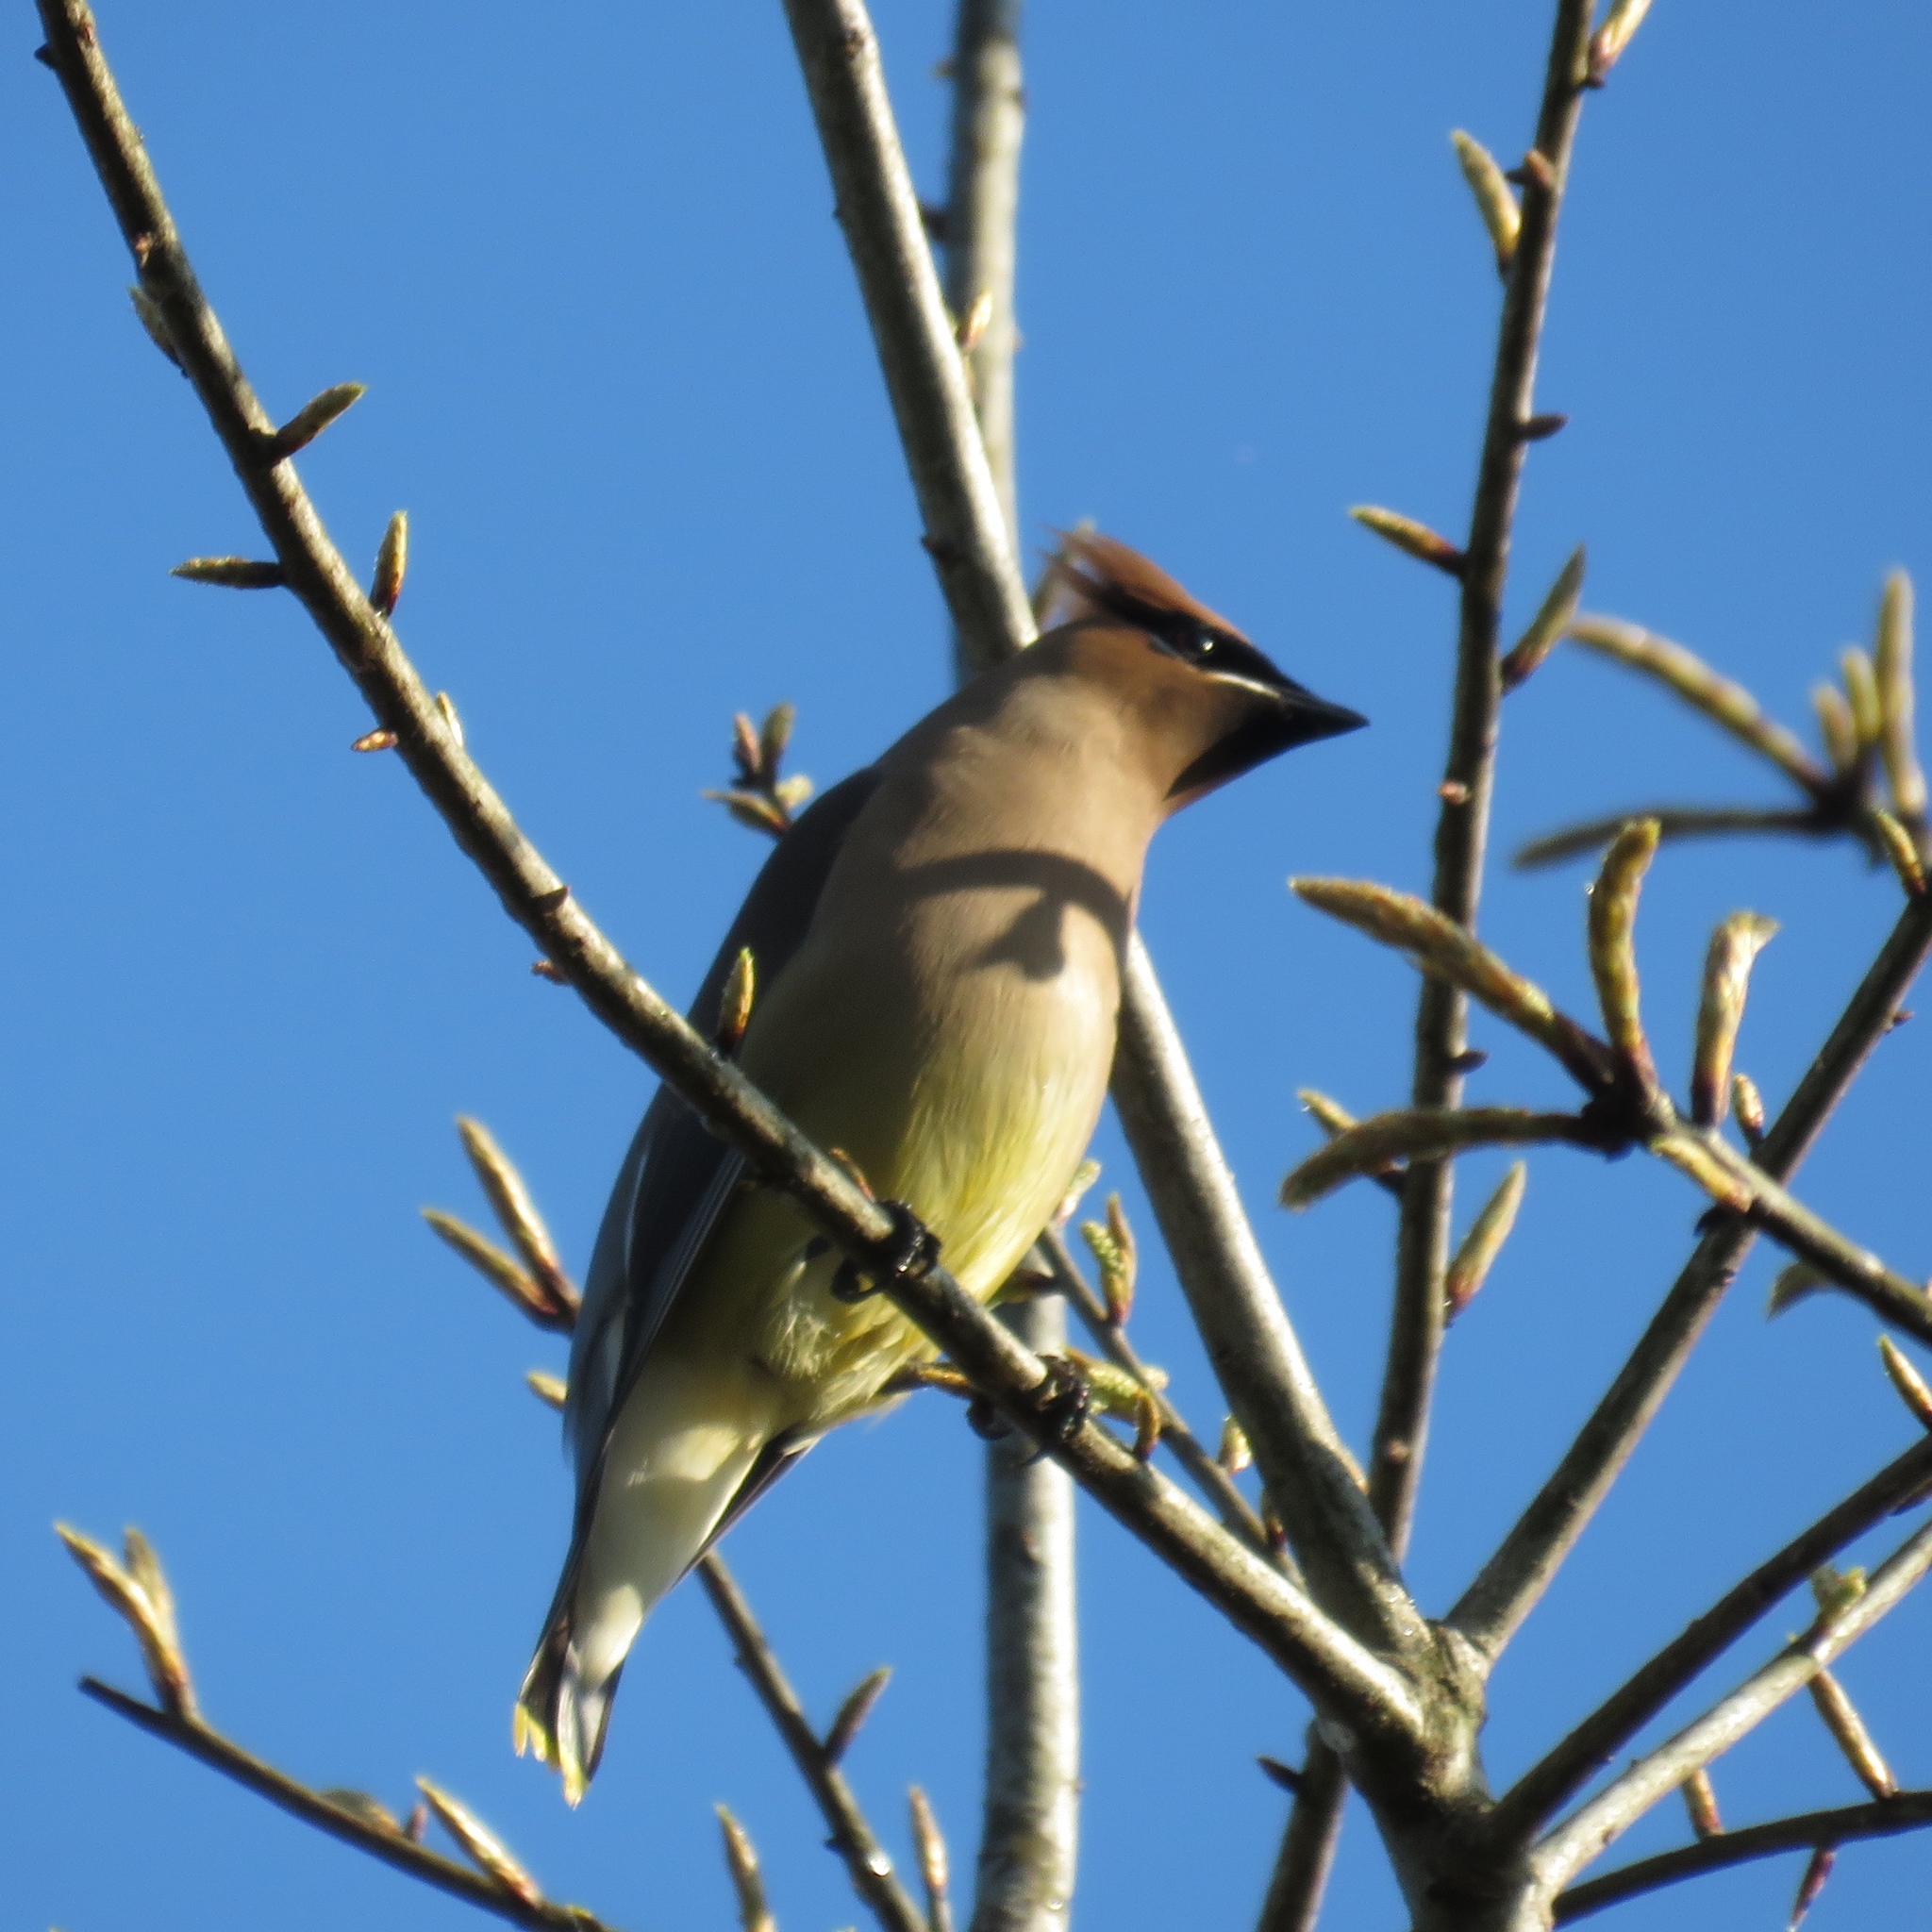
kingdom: Animalia
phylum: Chordata
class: Aves
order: Passeriformes
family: Bombycillidae
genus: Bombycilla
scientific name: Bombycilla cedrorum
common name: Cedar waxwing
